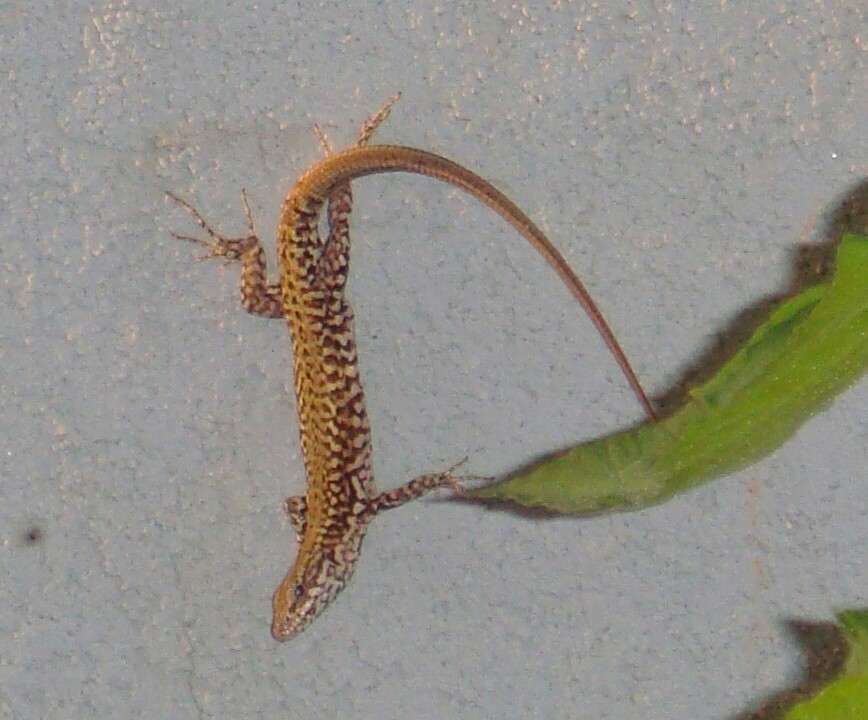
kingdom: Animalia
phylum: Chordata
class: Squamata
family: Lacertidae
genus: Podarcis
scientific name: Podarcis muralis
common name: Common wall lizard
